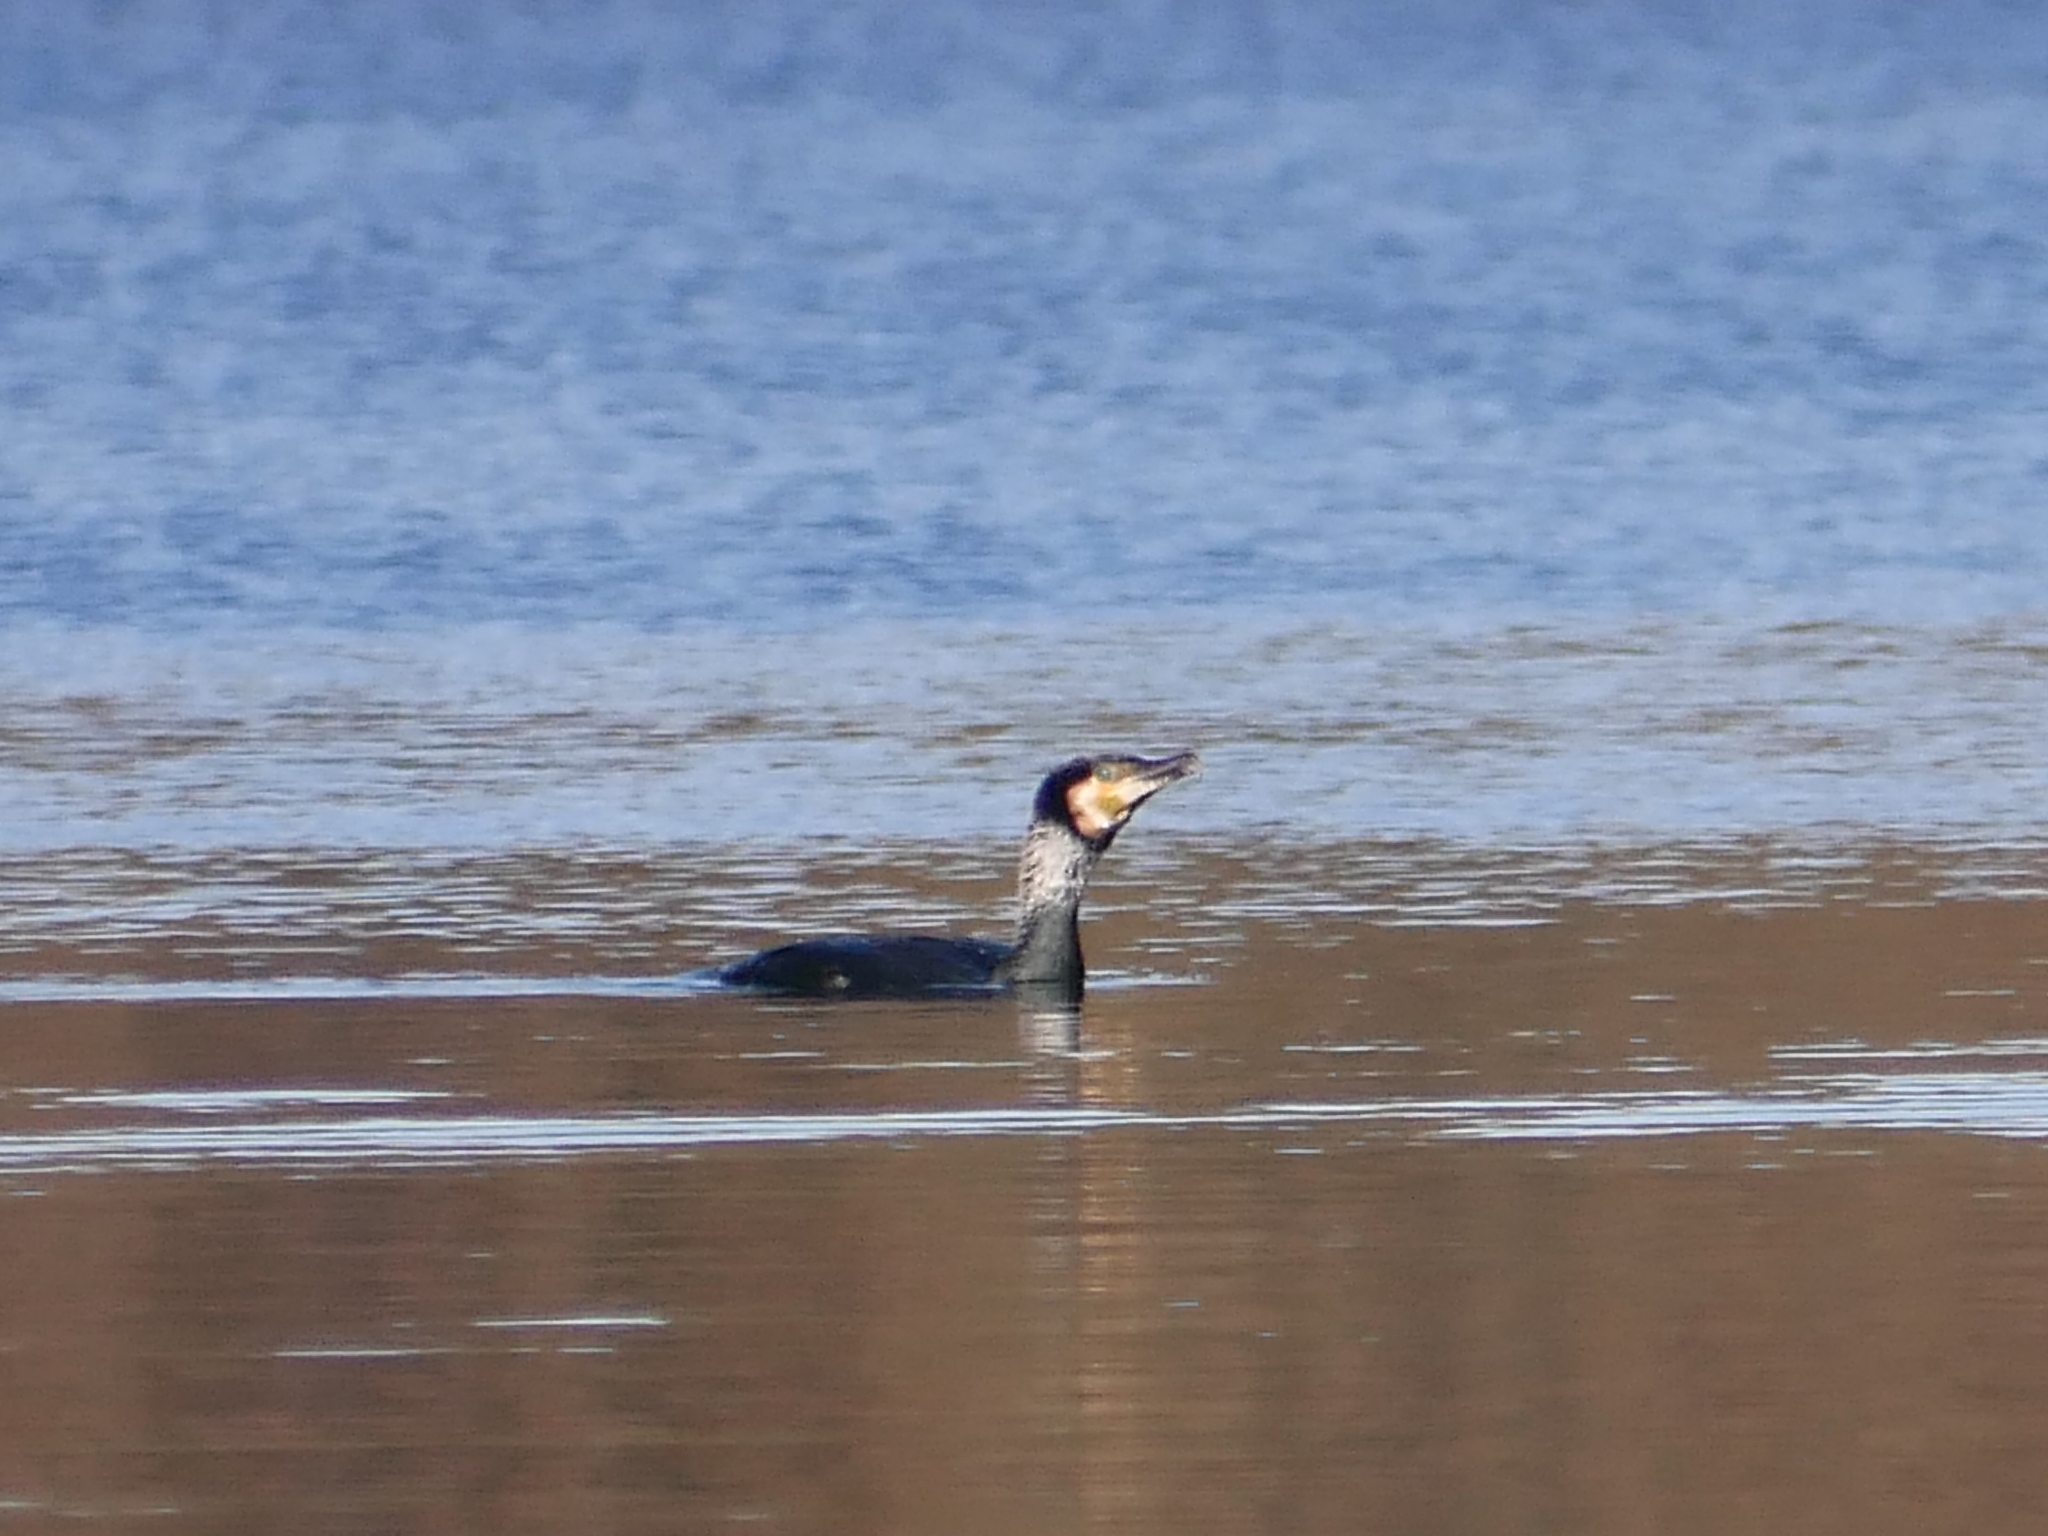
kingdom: Animalia
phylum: Chordata
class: Aves
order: Suliformes
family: Phalacrocoracidae
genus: Phalacrocorax
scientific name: Phalacrocorax carbo
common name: Great cormorant
